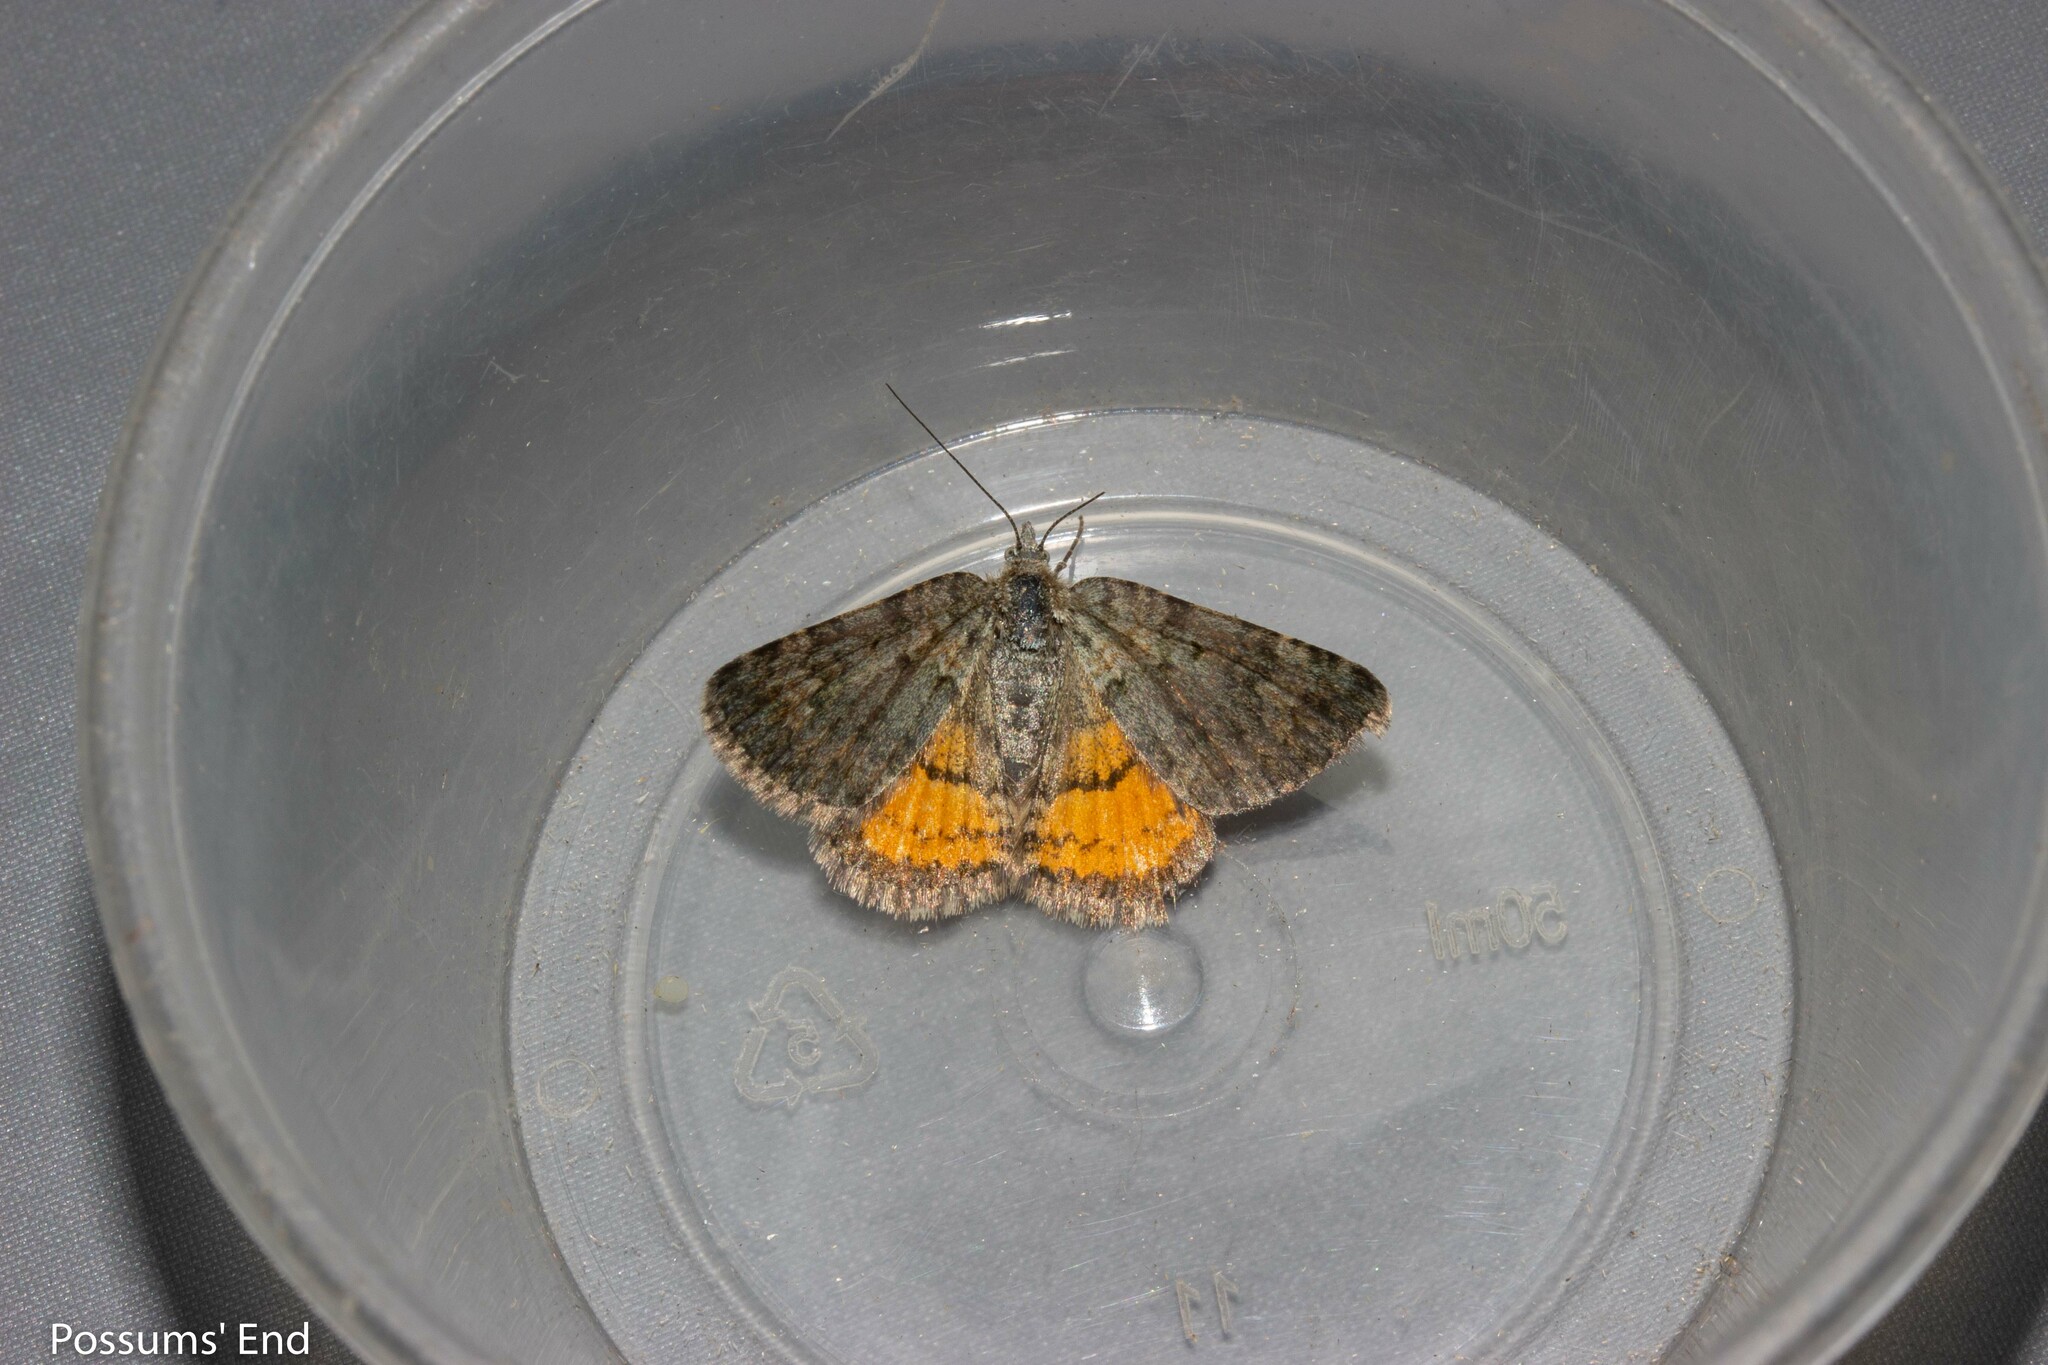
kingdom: Animalia
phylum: Arthropoda
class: Insecta
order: Lepidoptera
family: Geometridae
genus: Paranotoreas
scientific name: Paranotoreas brephosata
